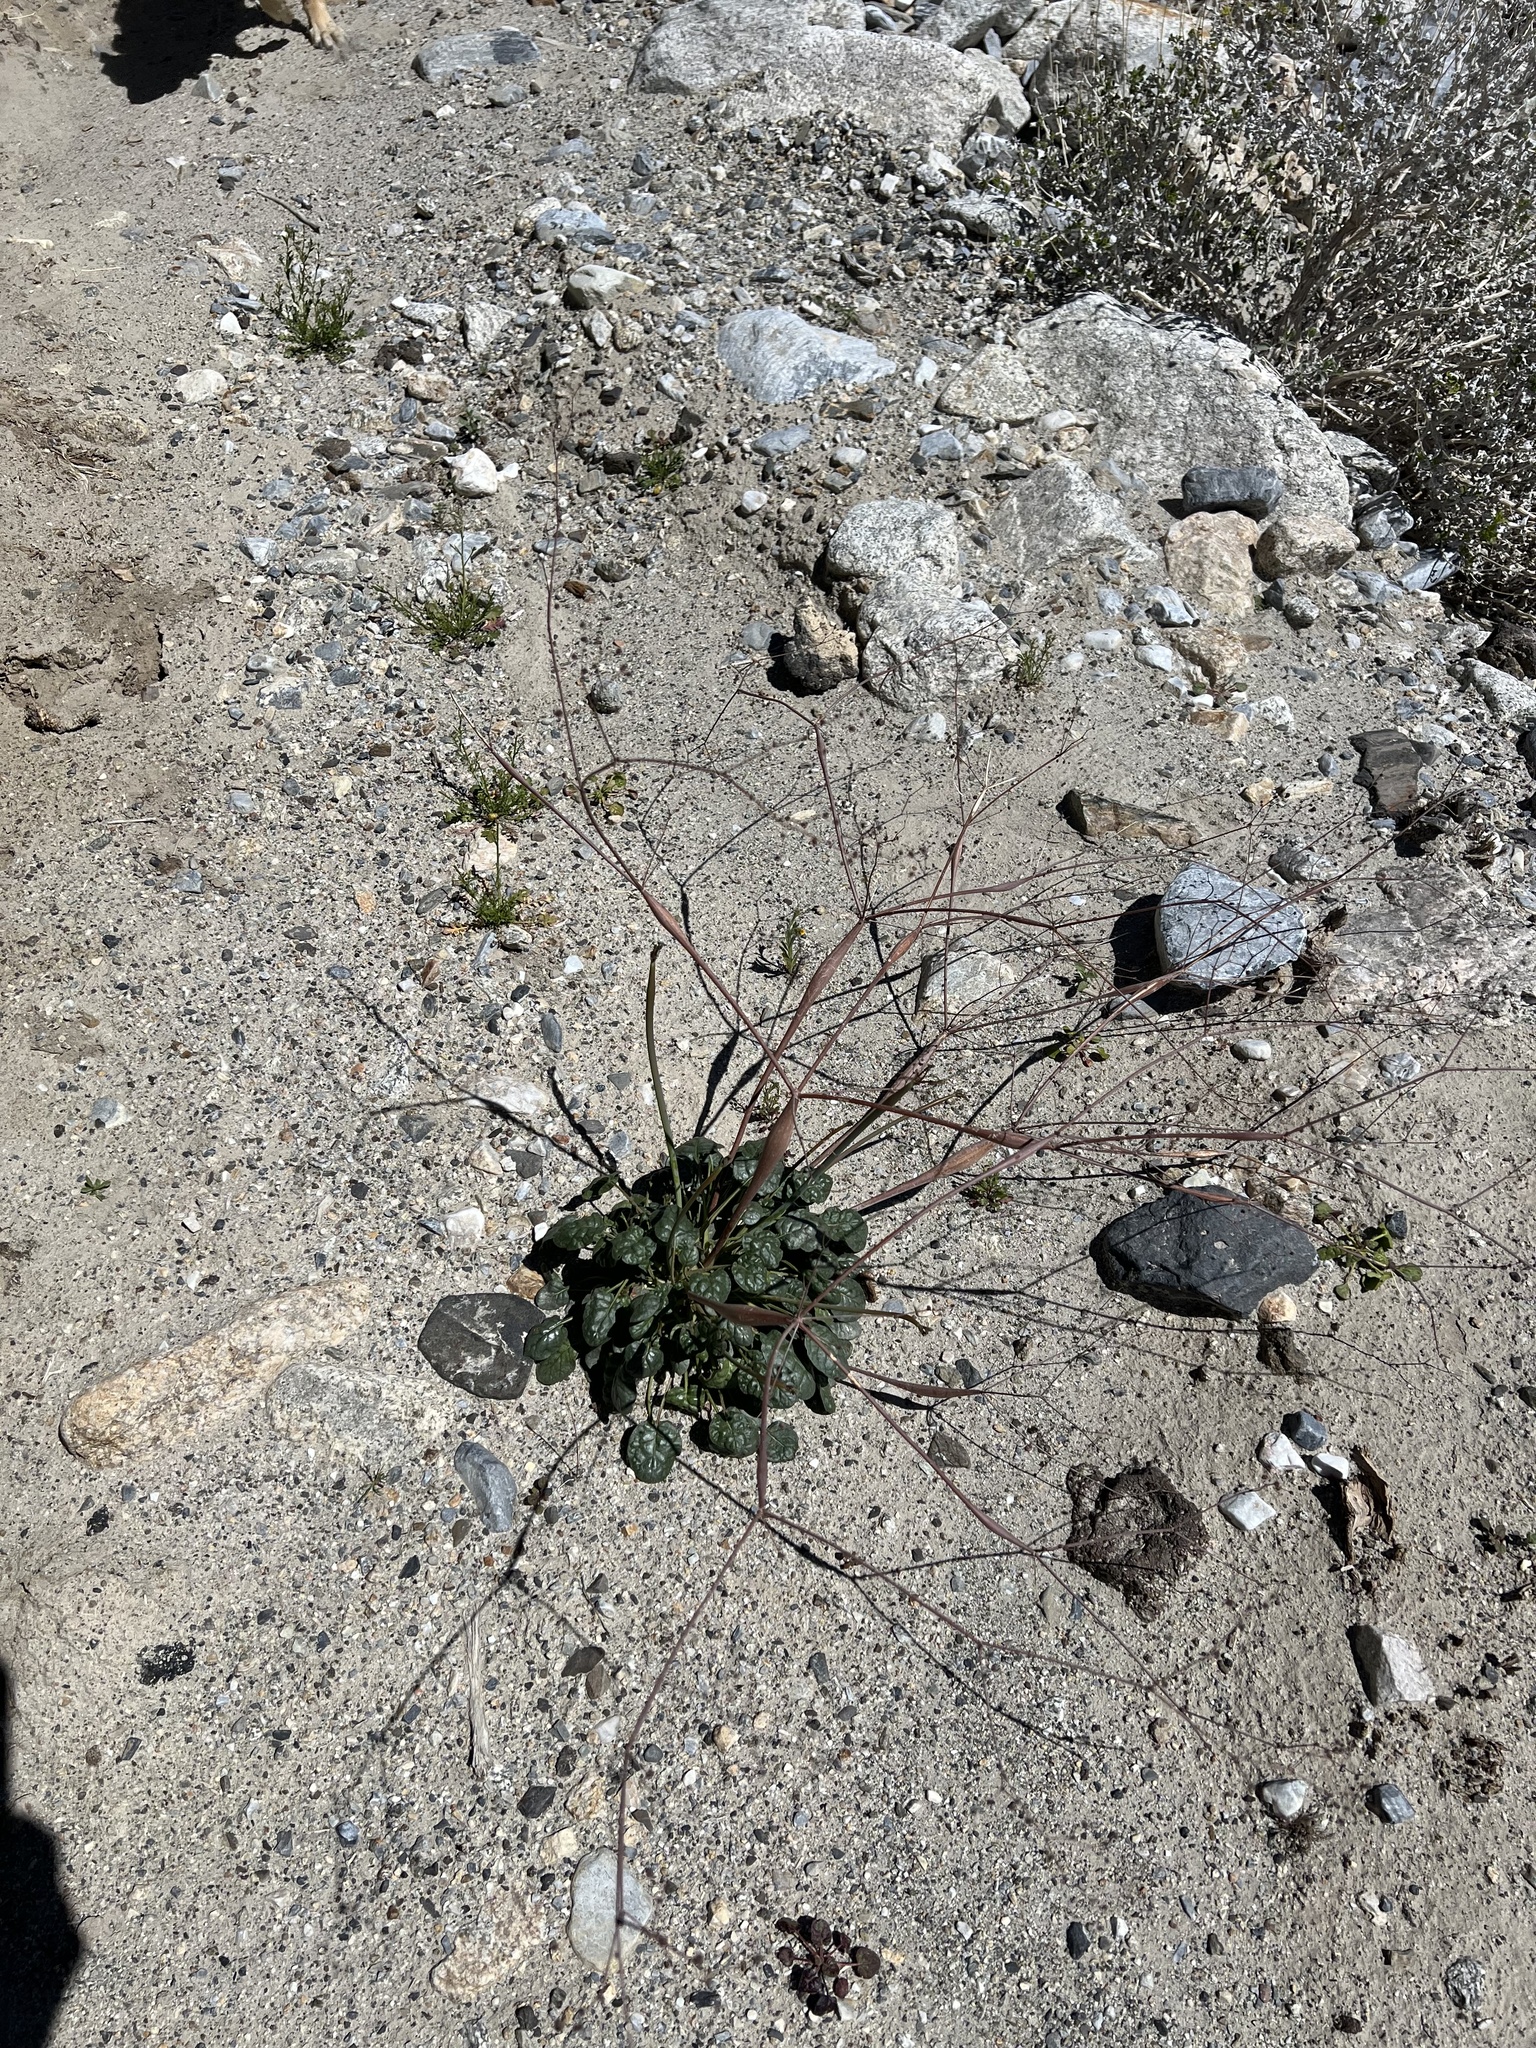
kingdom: Plantae
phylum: Tracheophyta
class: Magnoliopsida
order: Caryophyllales
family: Polygonaceae
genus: Eriogonum
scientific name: Eriogonum inflatum
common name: Desert trumpet
